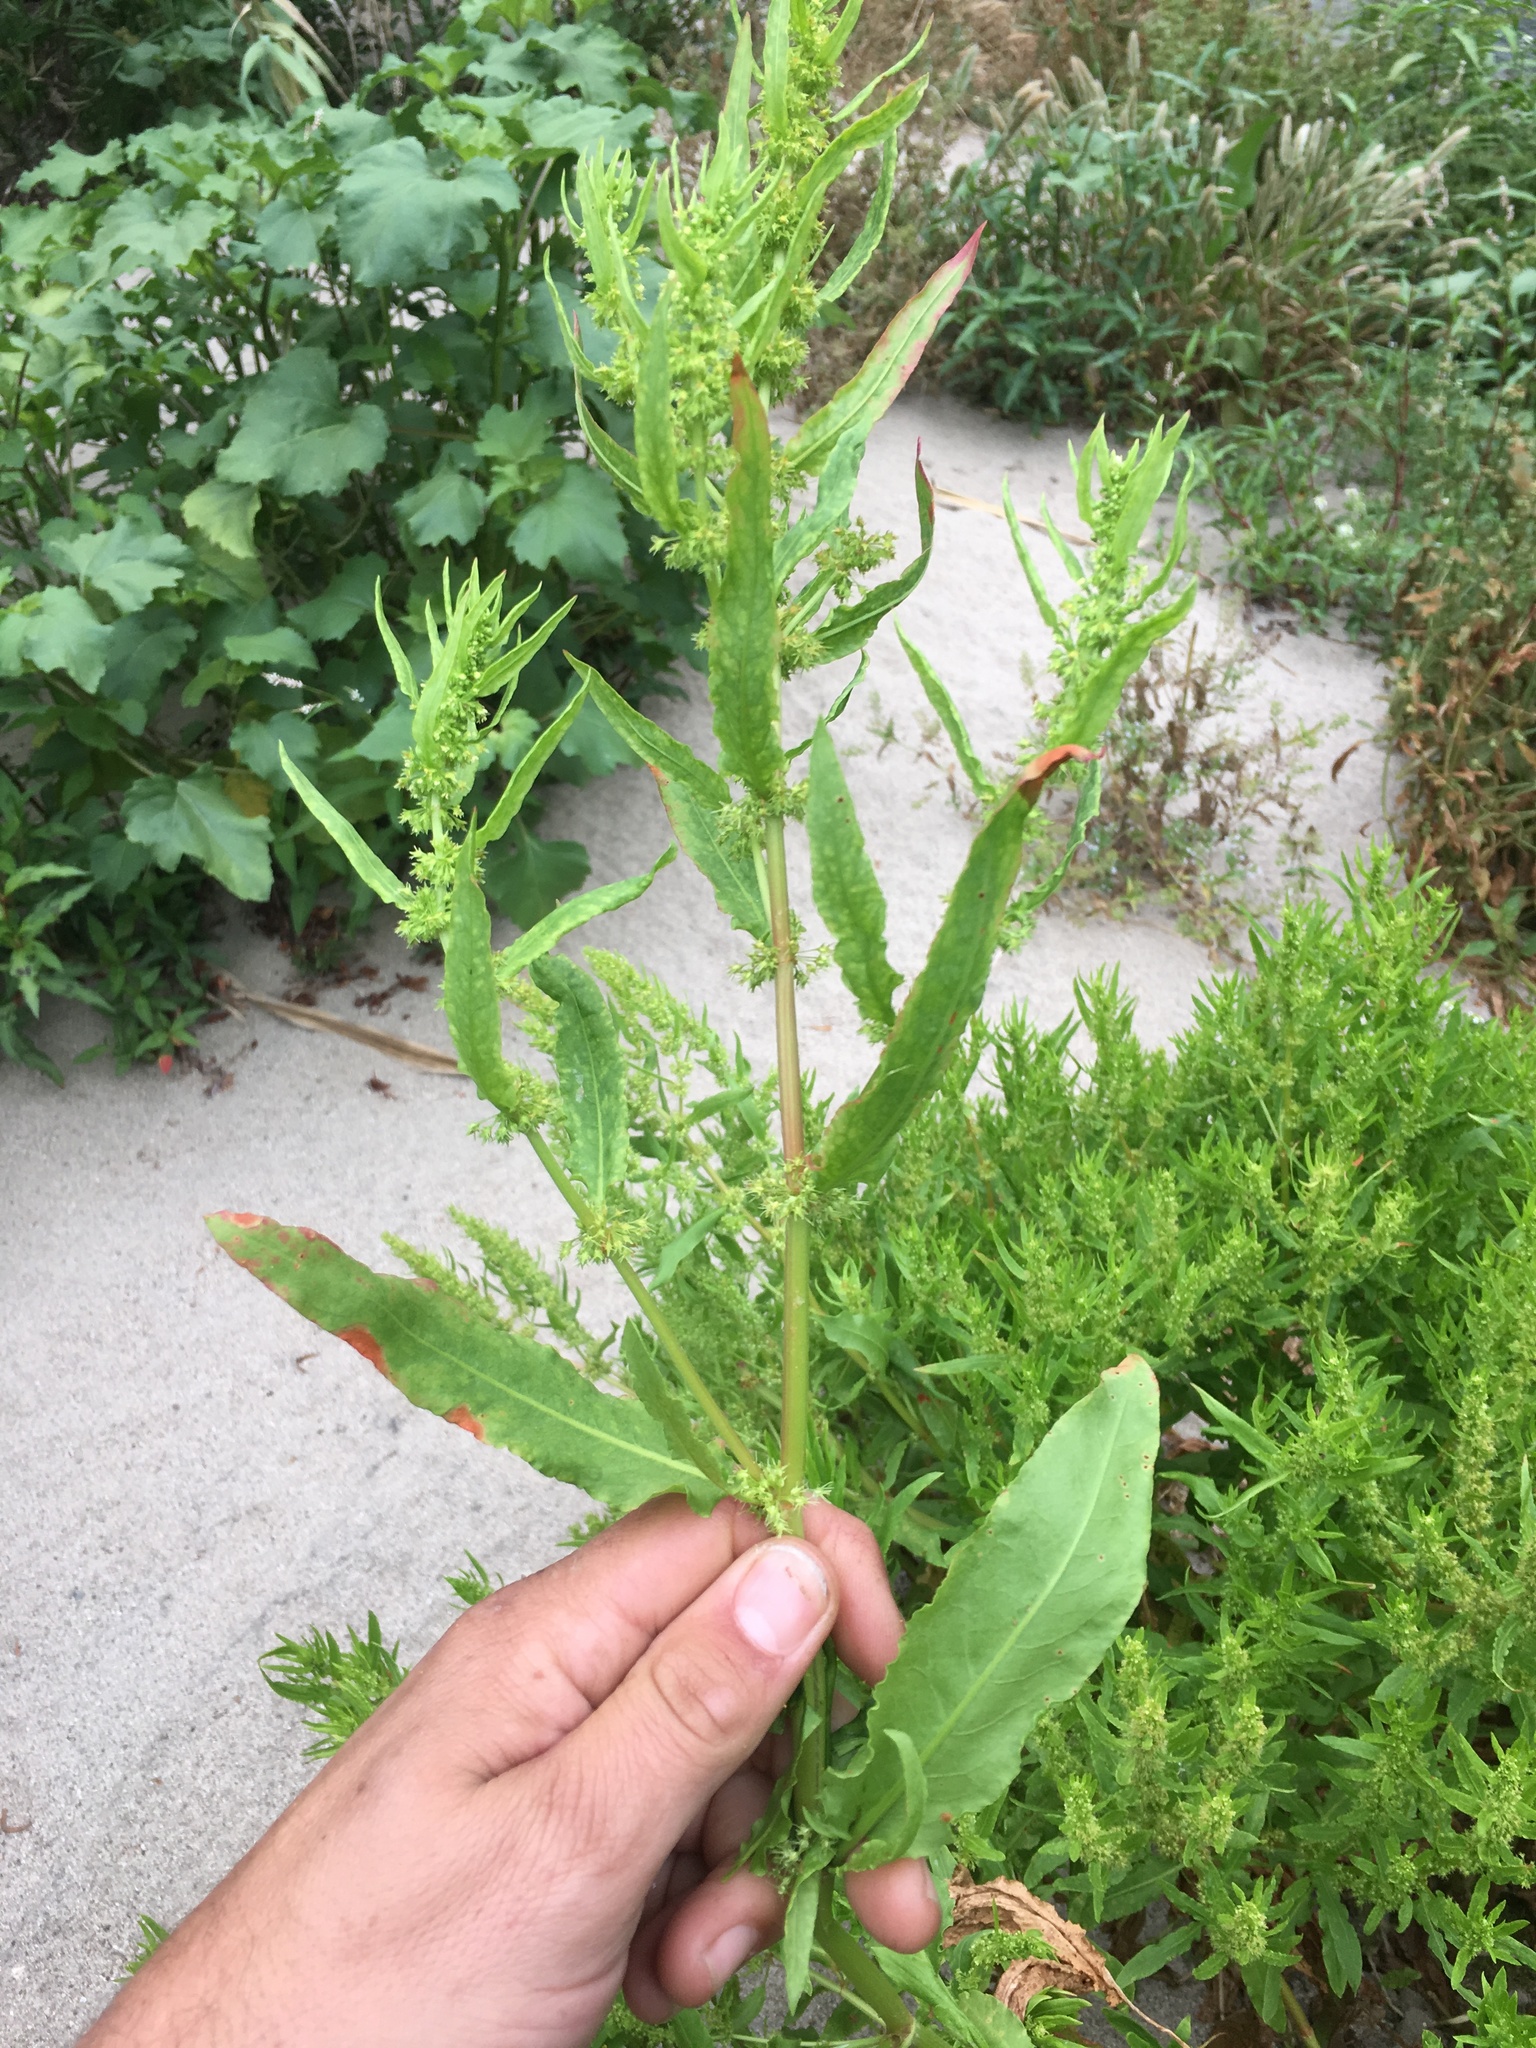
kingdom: Plantae
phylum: Tracheophyta
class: Magnoliopsida
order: Caryophyllales
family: Polygonaceae
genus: Rumex
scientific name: Rumex fueginus
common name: American golden dock
